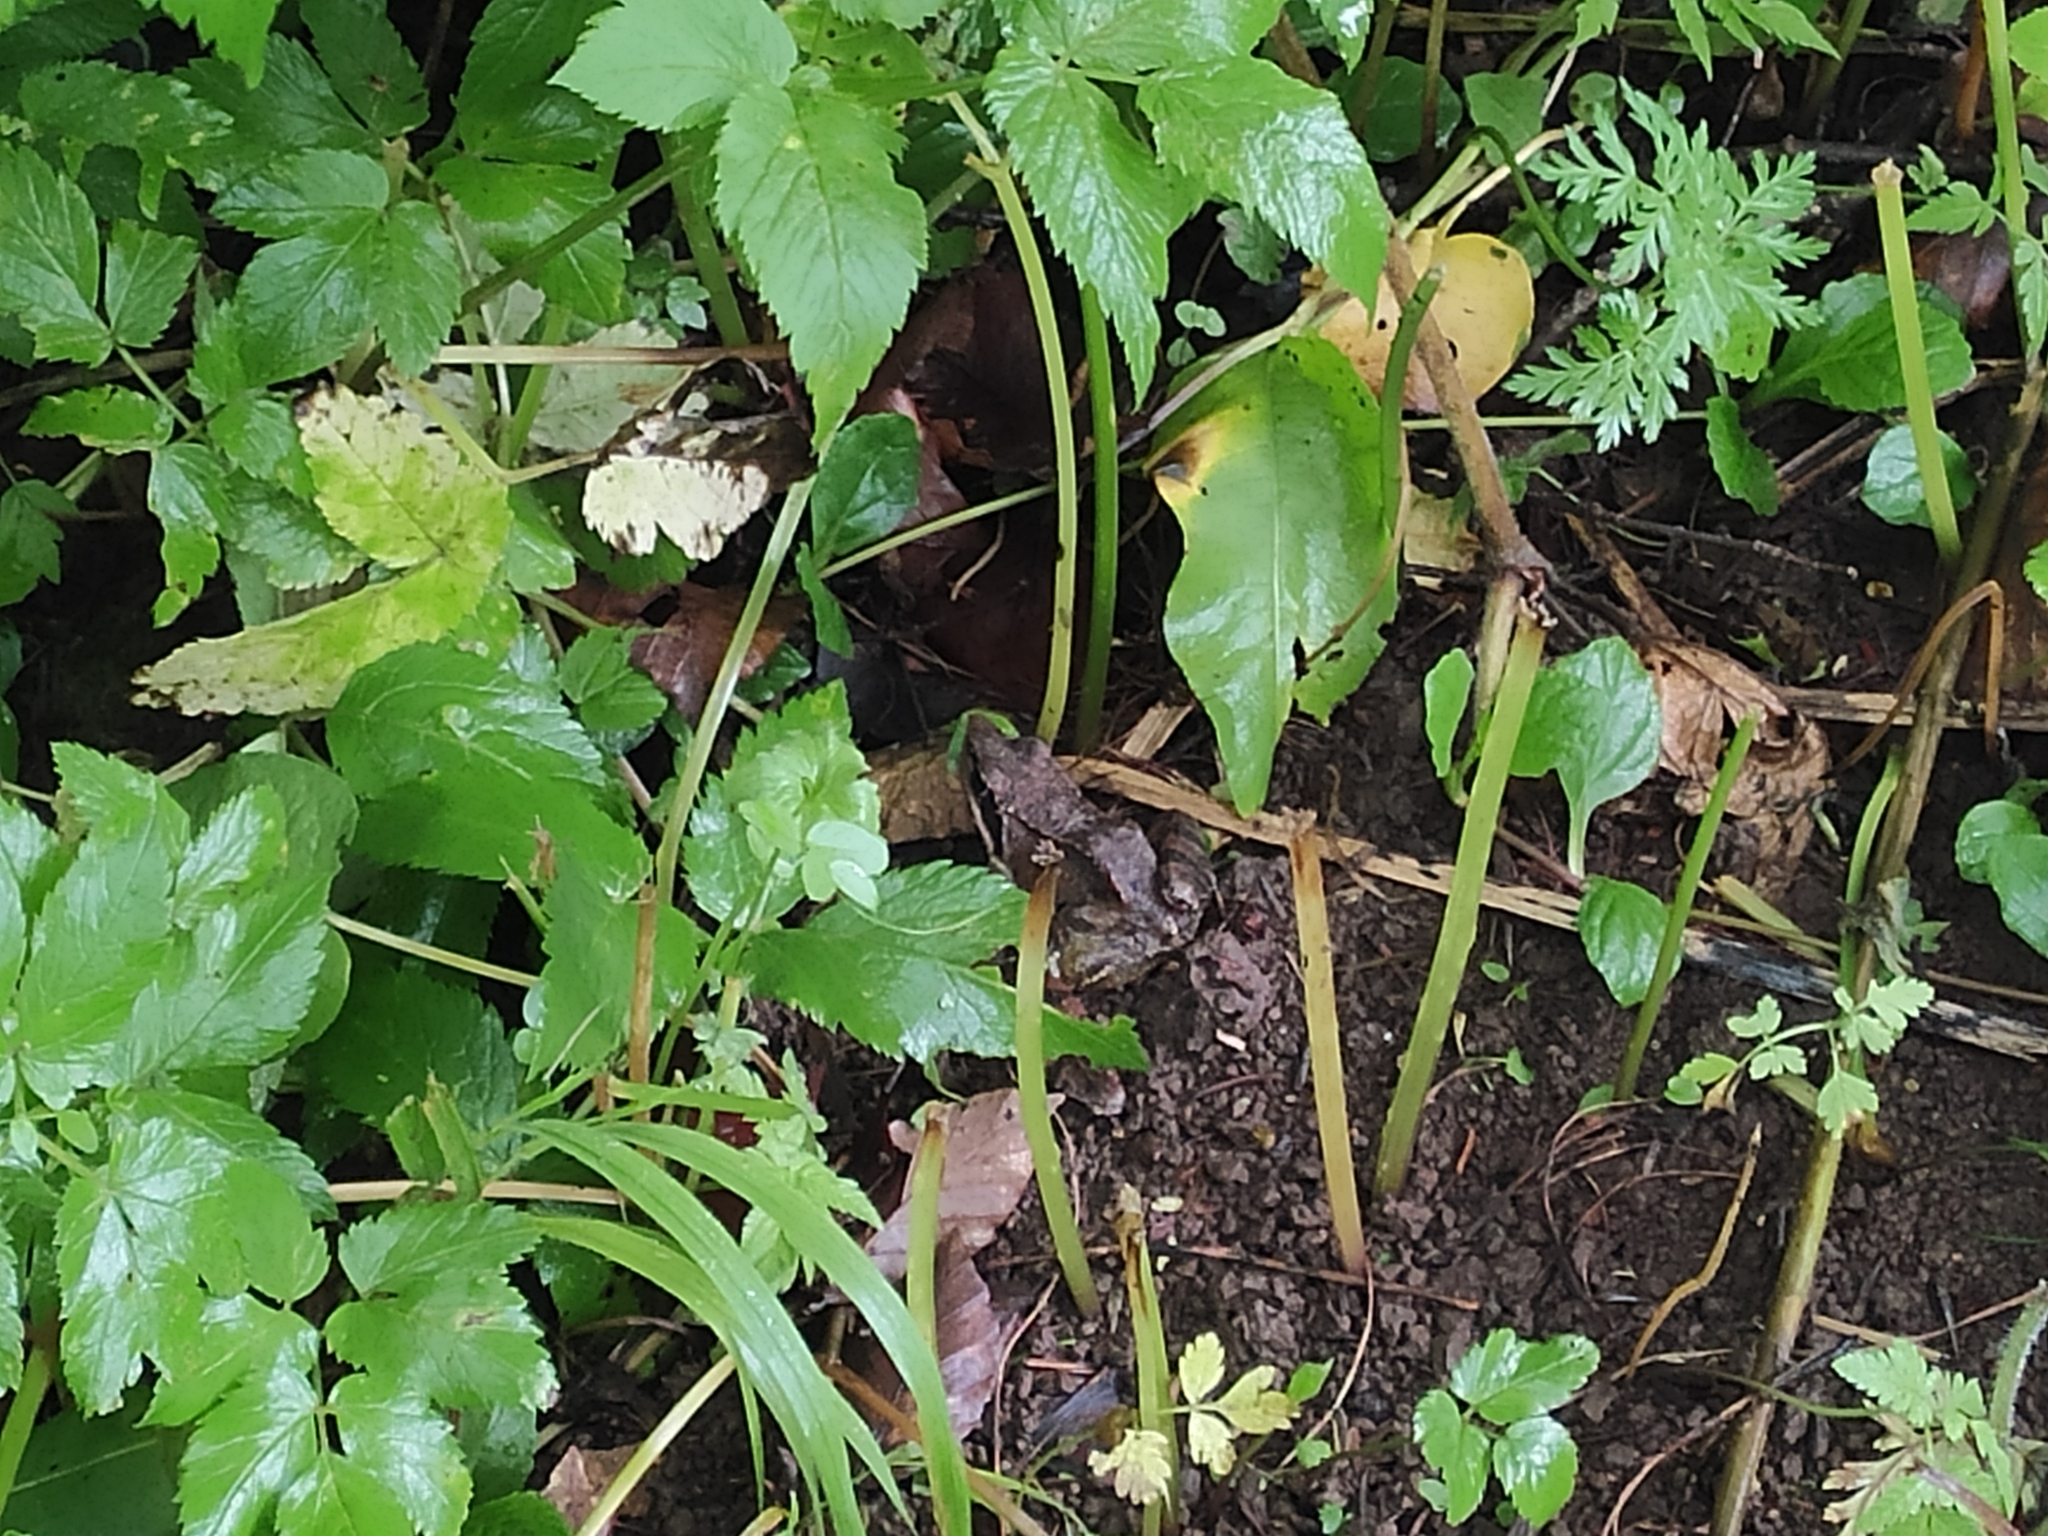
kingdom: Animalia
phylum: Chordata
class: Amphibia
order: Anura
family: Ranidae
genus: Rana
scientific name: Rana macrocnemis
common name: Banded frog
